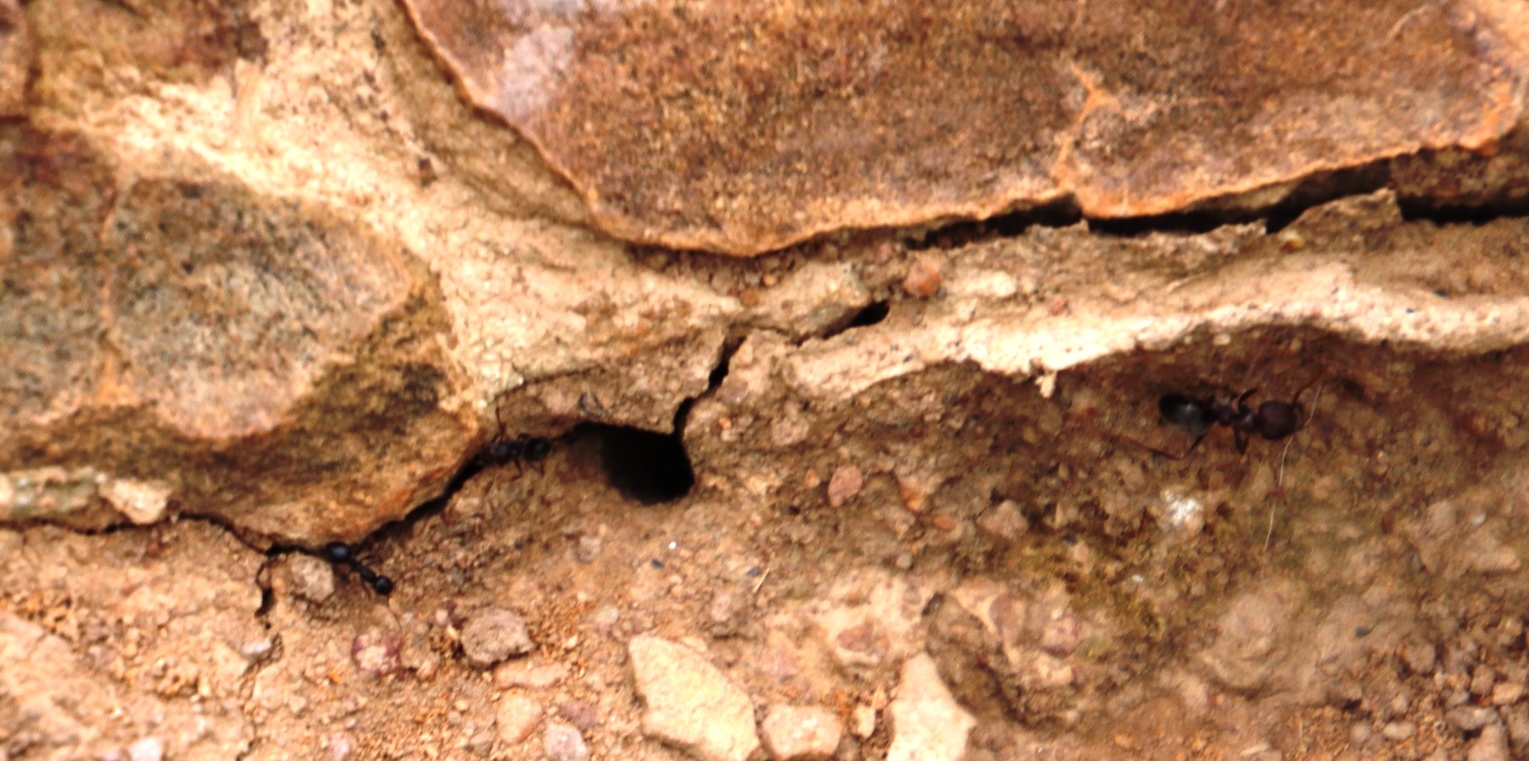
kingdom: Animalia
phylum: Arthropoda
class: Insecta
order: Hymenoptera
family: Formicidae
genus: Anoplolepis
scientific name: Anoplolepis steingroeveri
